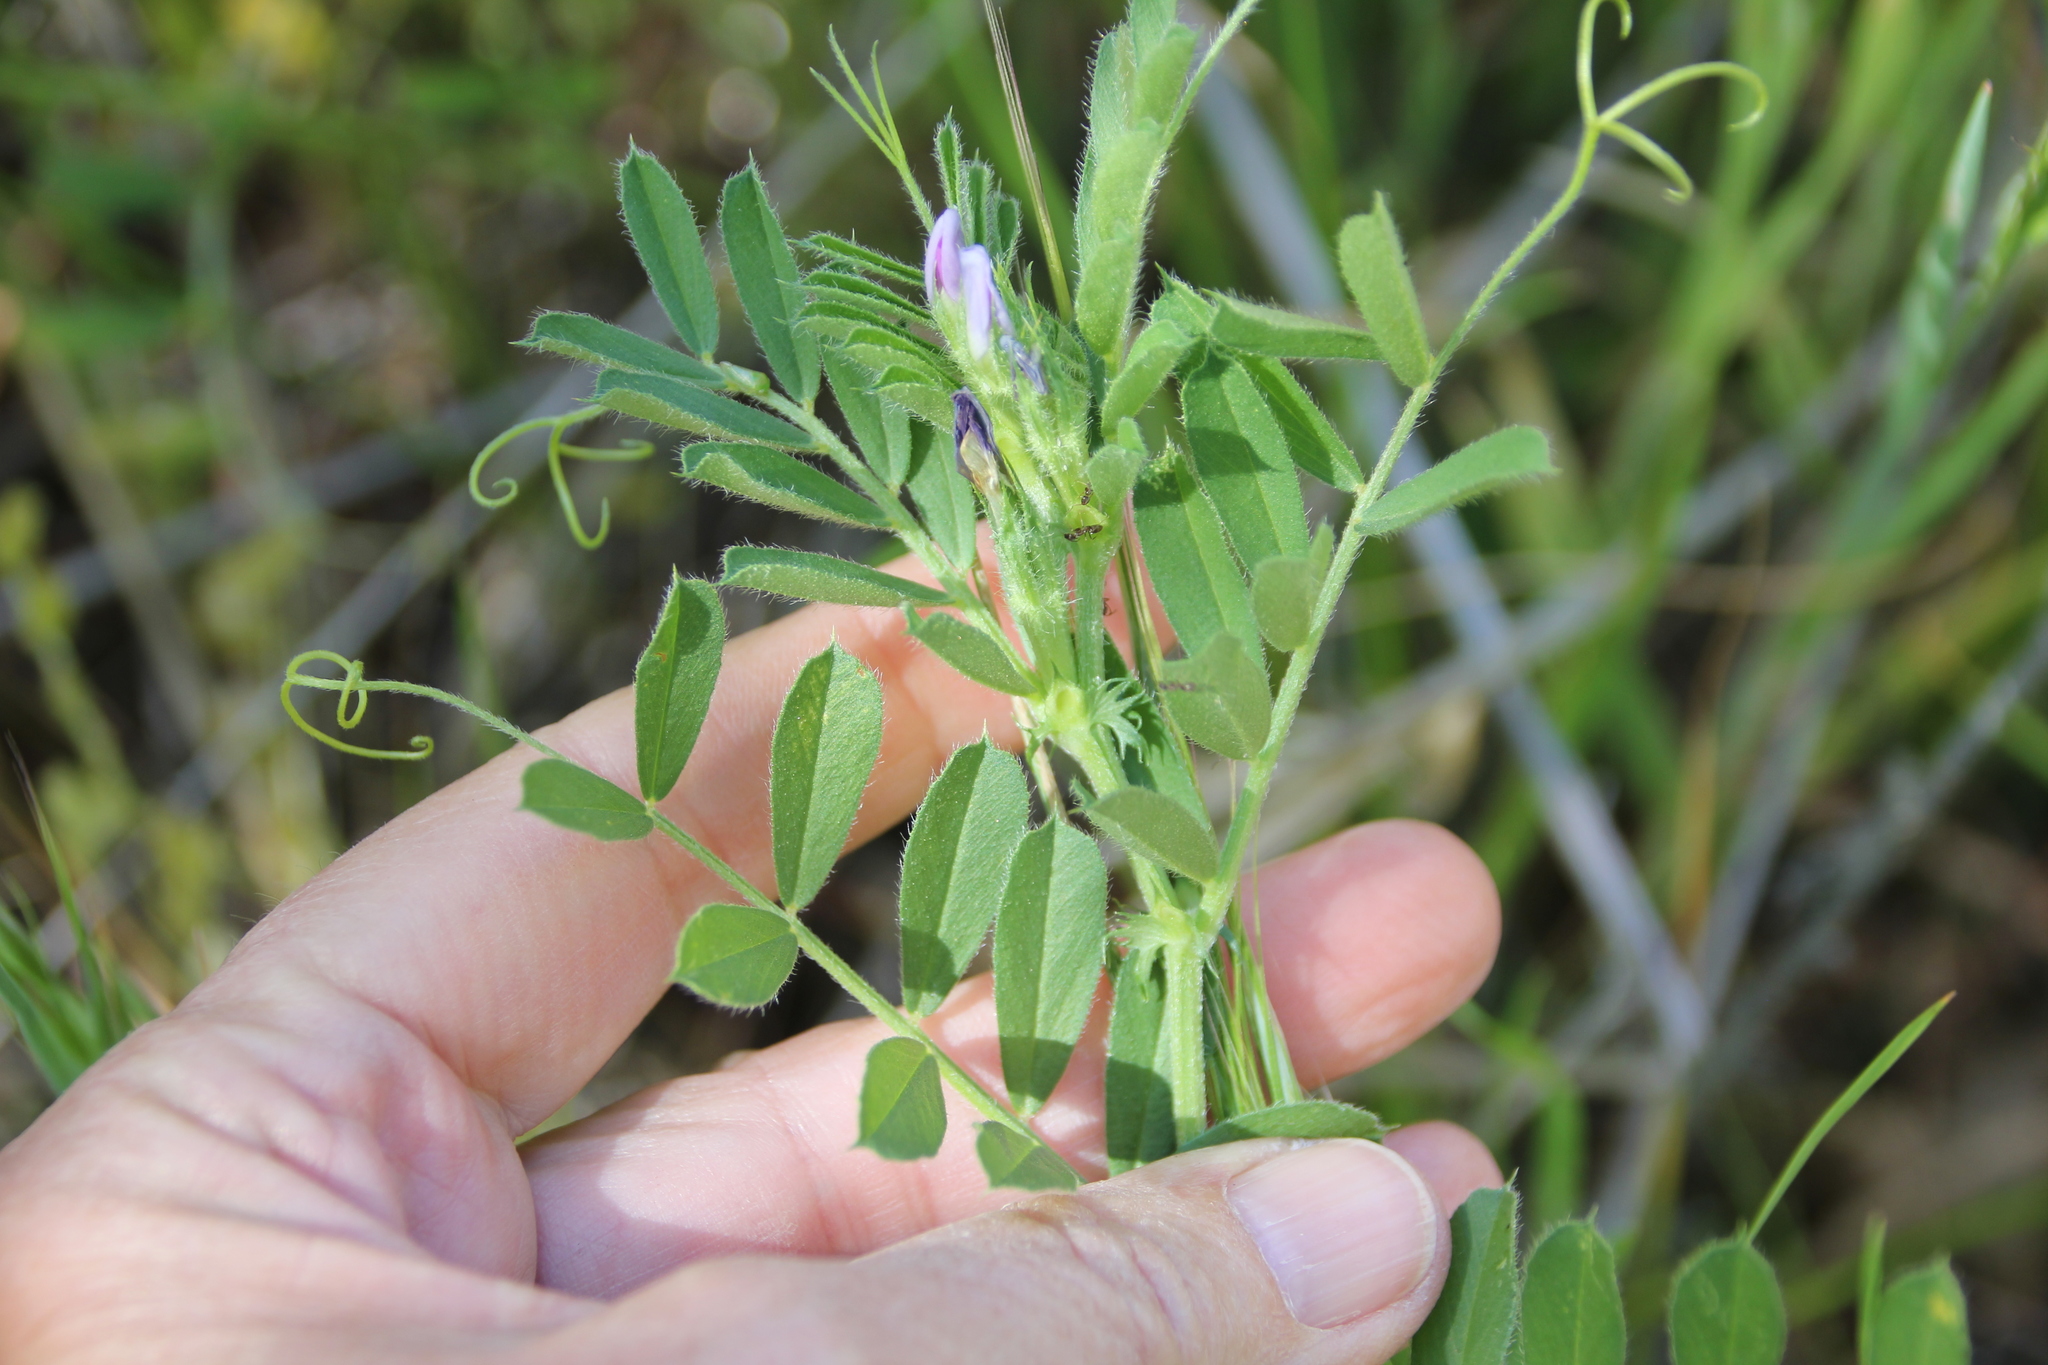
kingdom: Plantae
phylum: Tracheophyta
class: Magnoliopsida
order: Fabales
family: Fabaceae
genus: Vicia
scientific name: Vicia sativa
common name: Garden vetch
